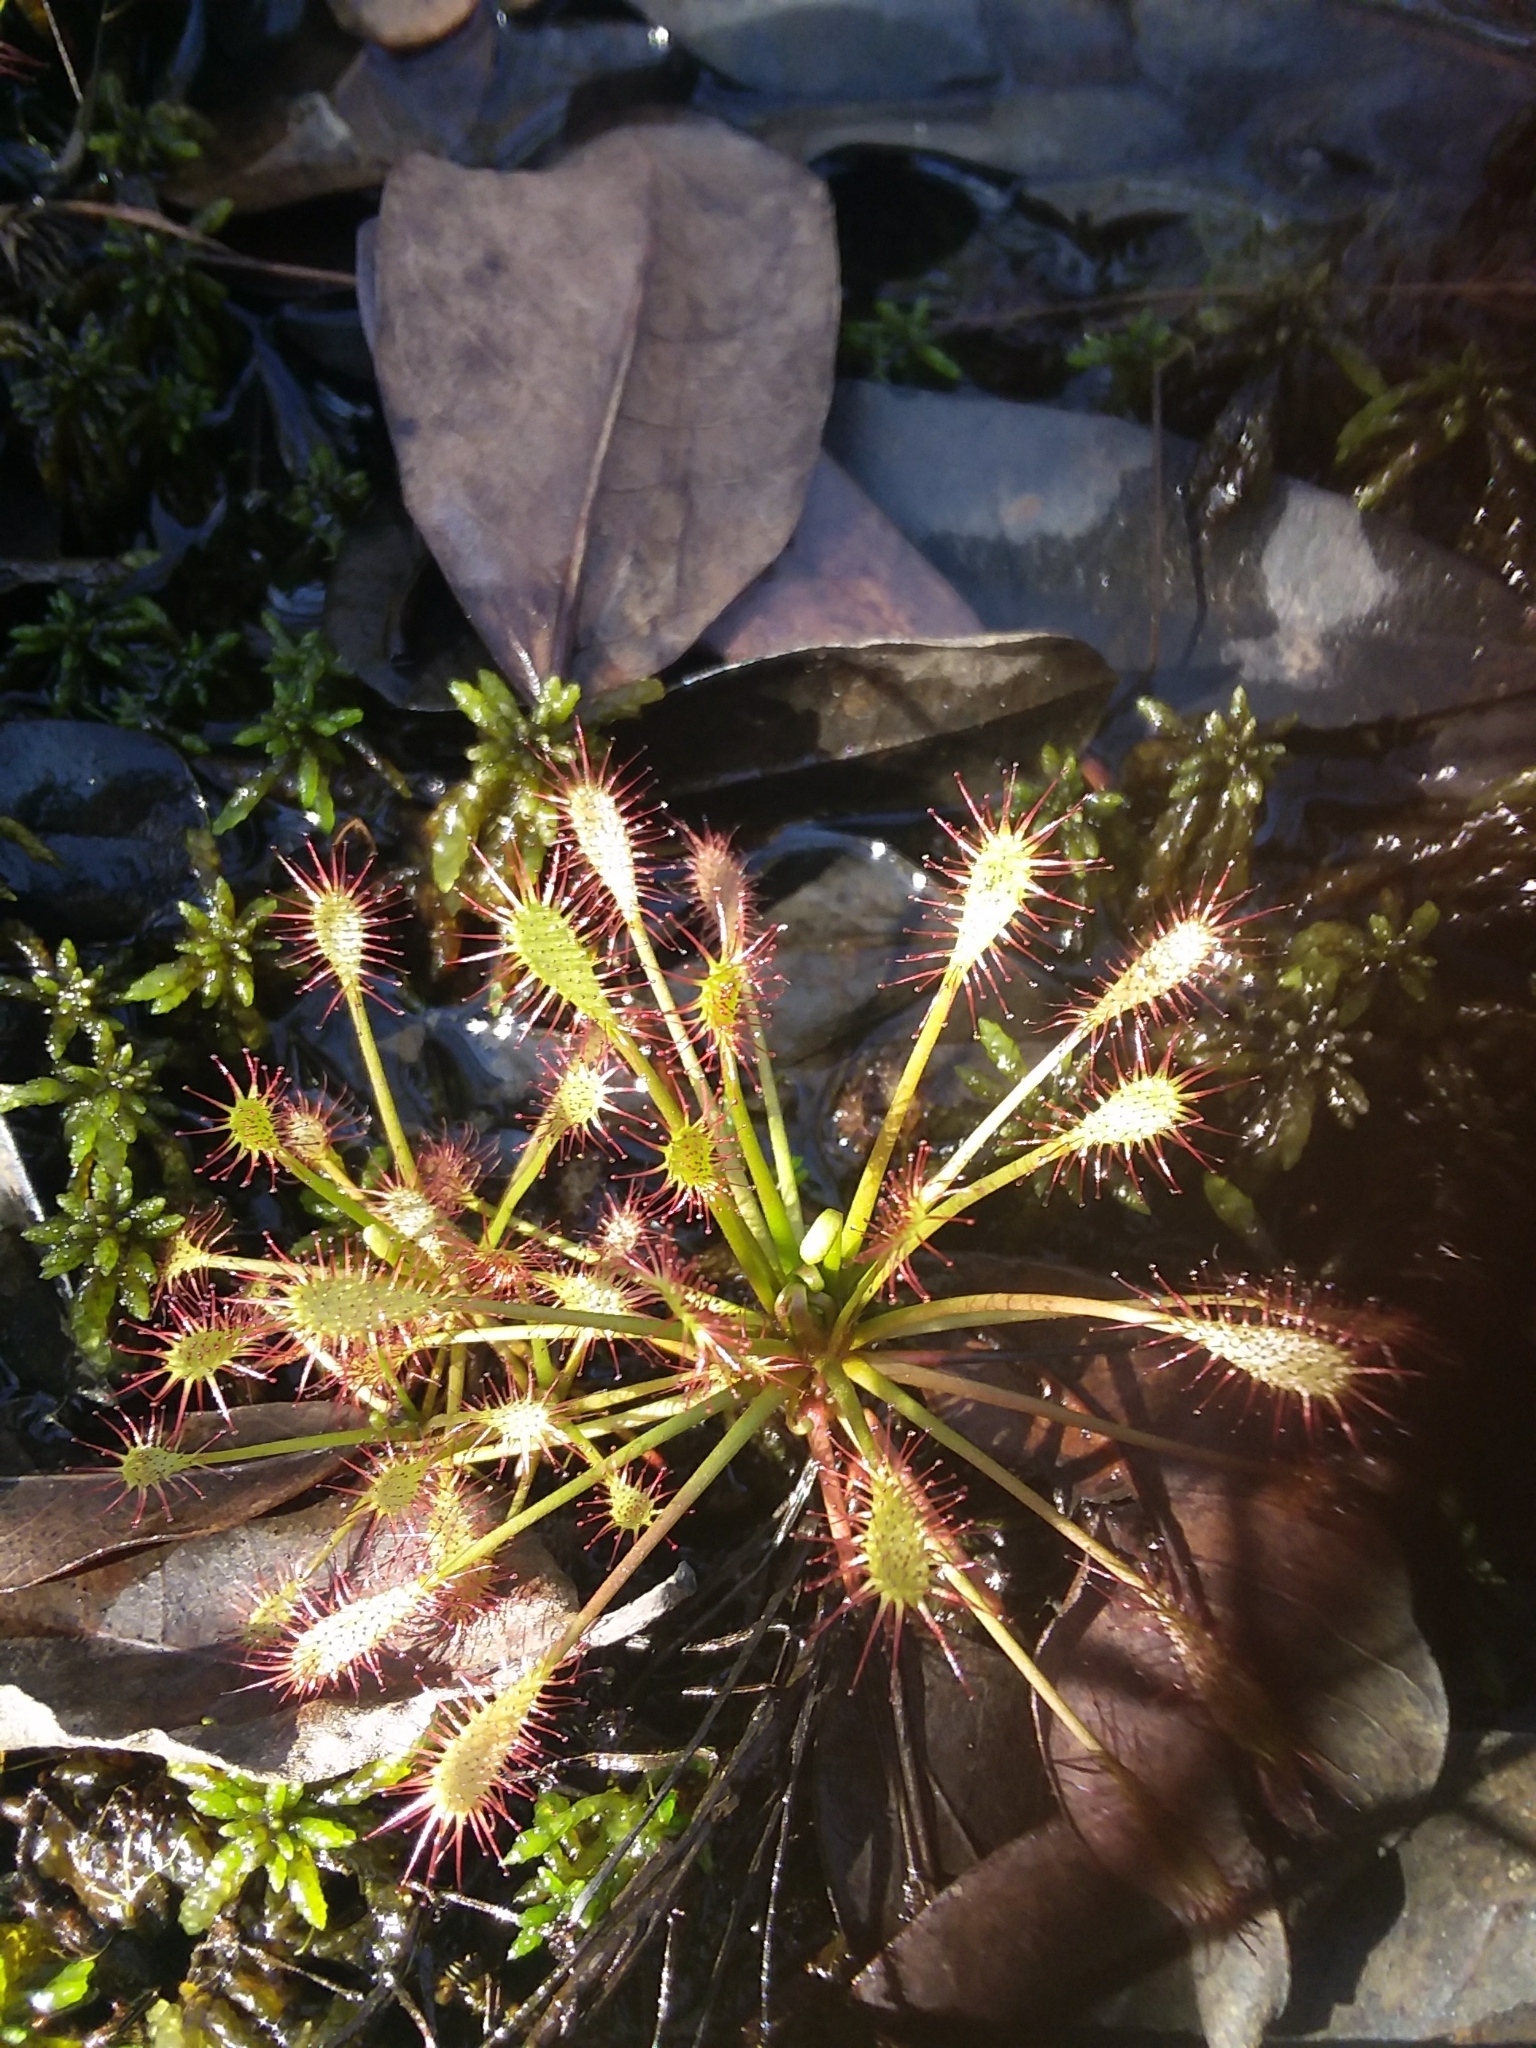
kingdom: Plantae
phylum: Tracheophyta
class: Magnoliopsida
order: Caryophyllales
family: Droseraceae
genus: Drosera
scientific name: Drosera intermedia
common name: Oblong-leaved sundew
